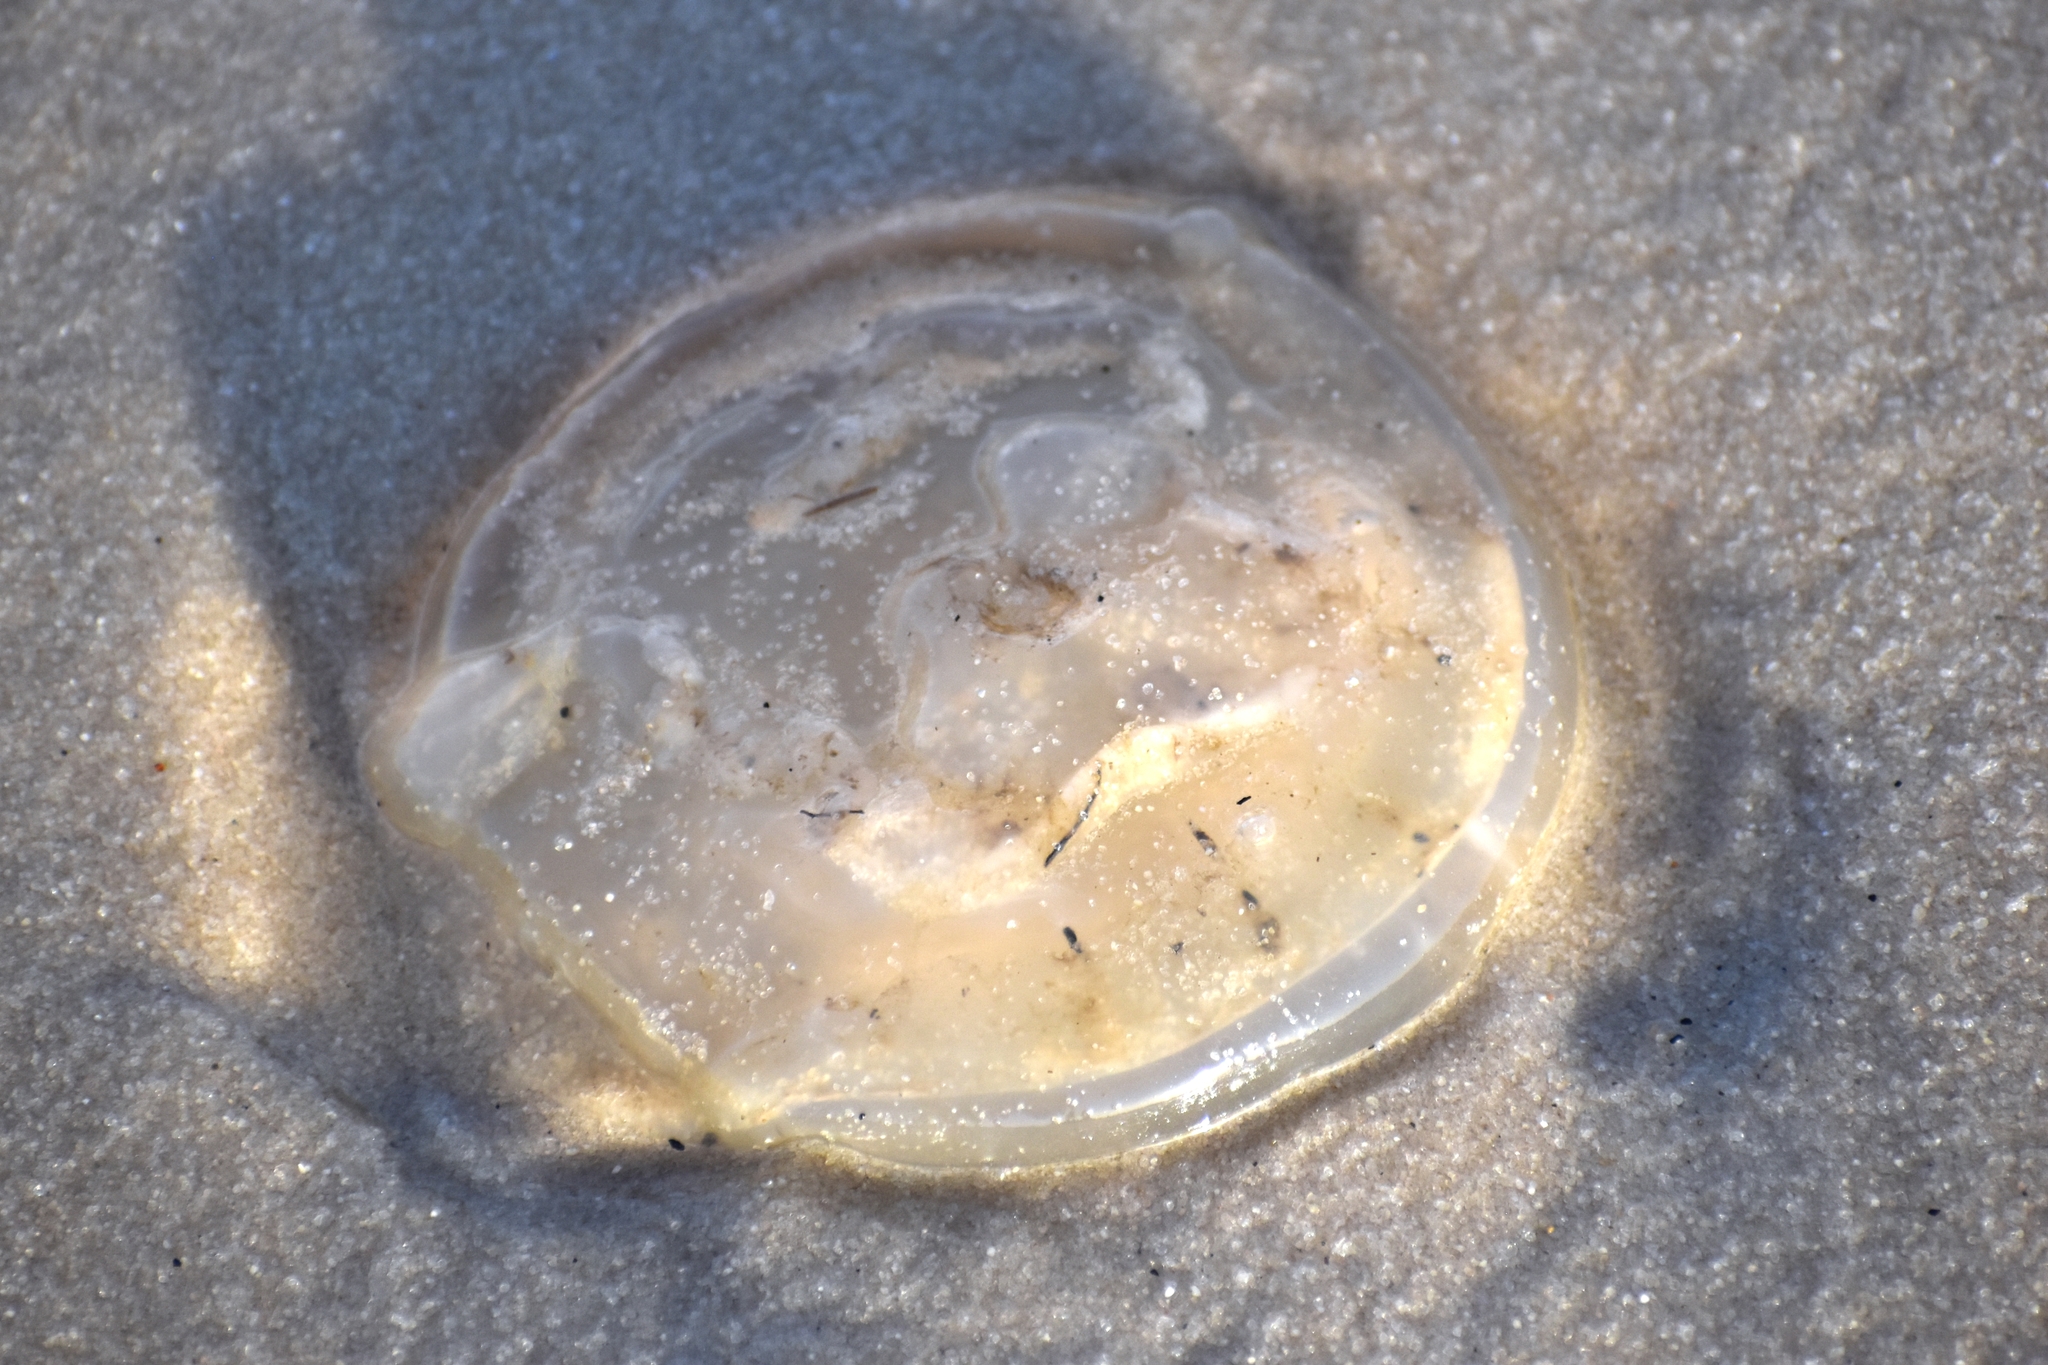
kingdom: Animalia
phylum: Cnidaria
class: Scyphozoa
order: Rhizostomeae
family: Rhizostomatidae
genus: Rhopilema
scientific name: Rhopilema verrilli
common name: Mushroom cap jellyfish
